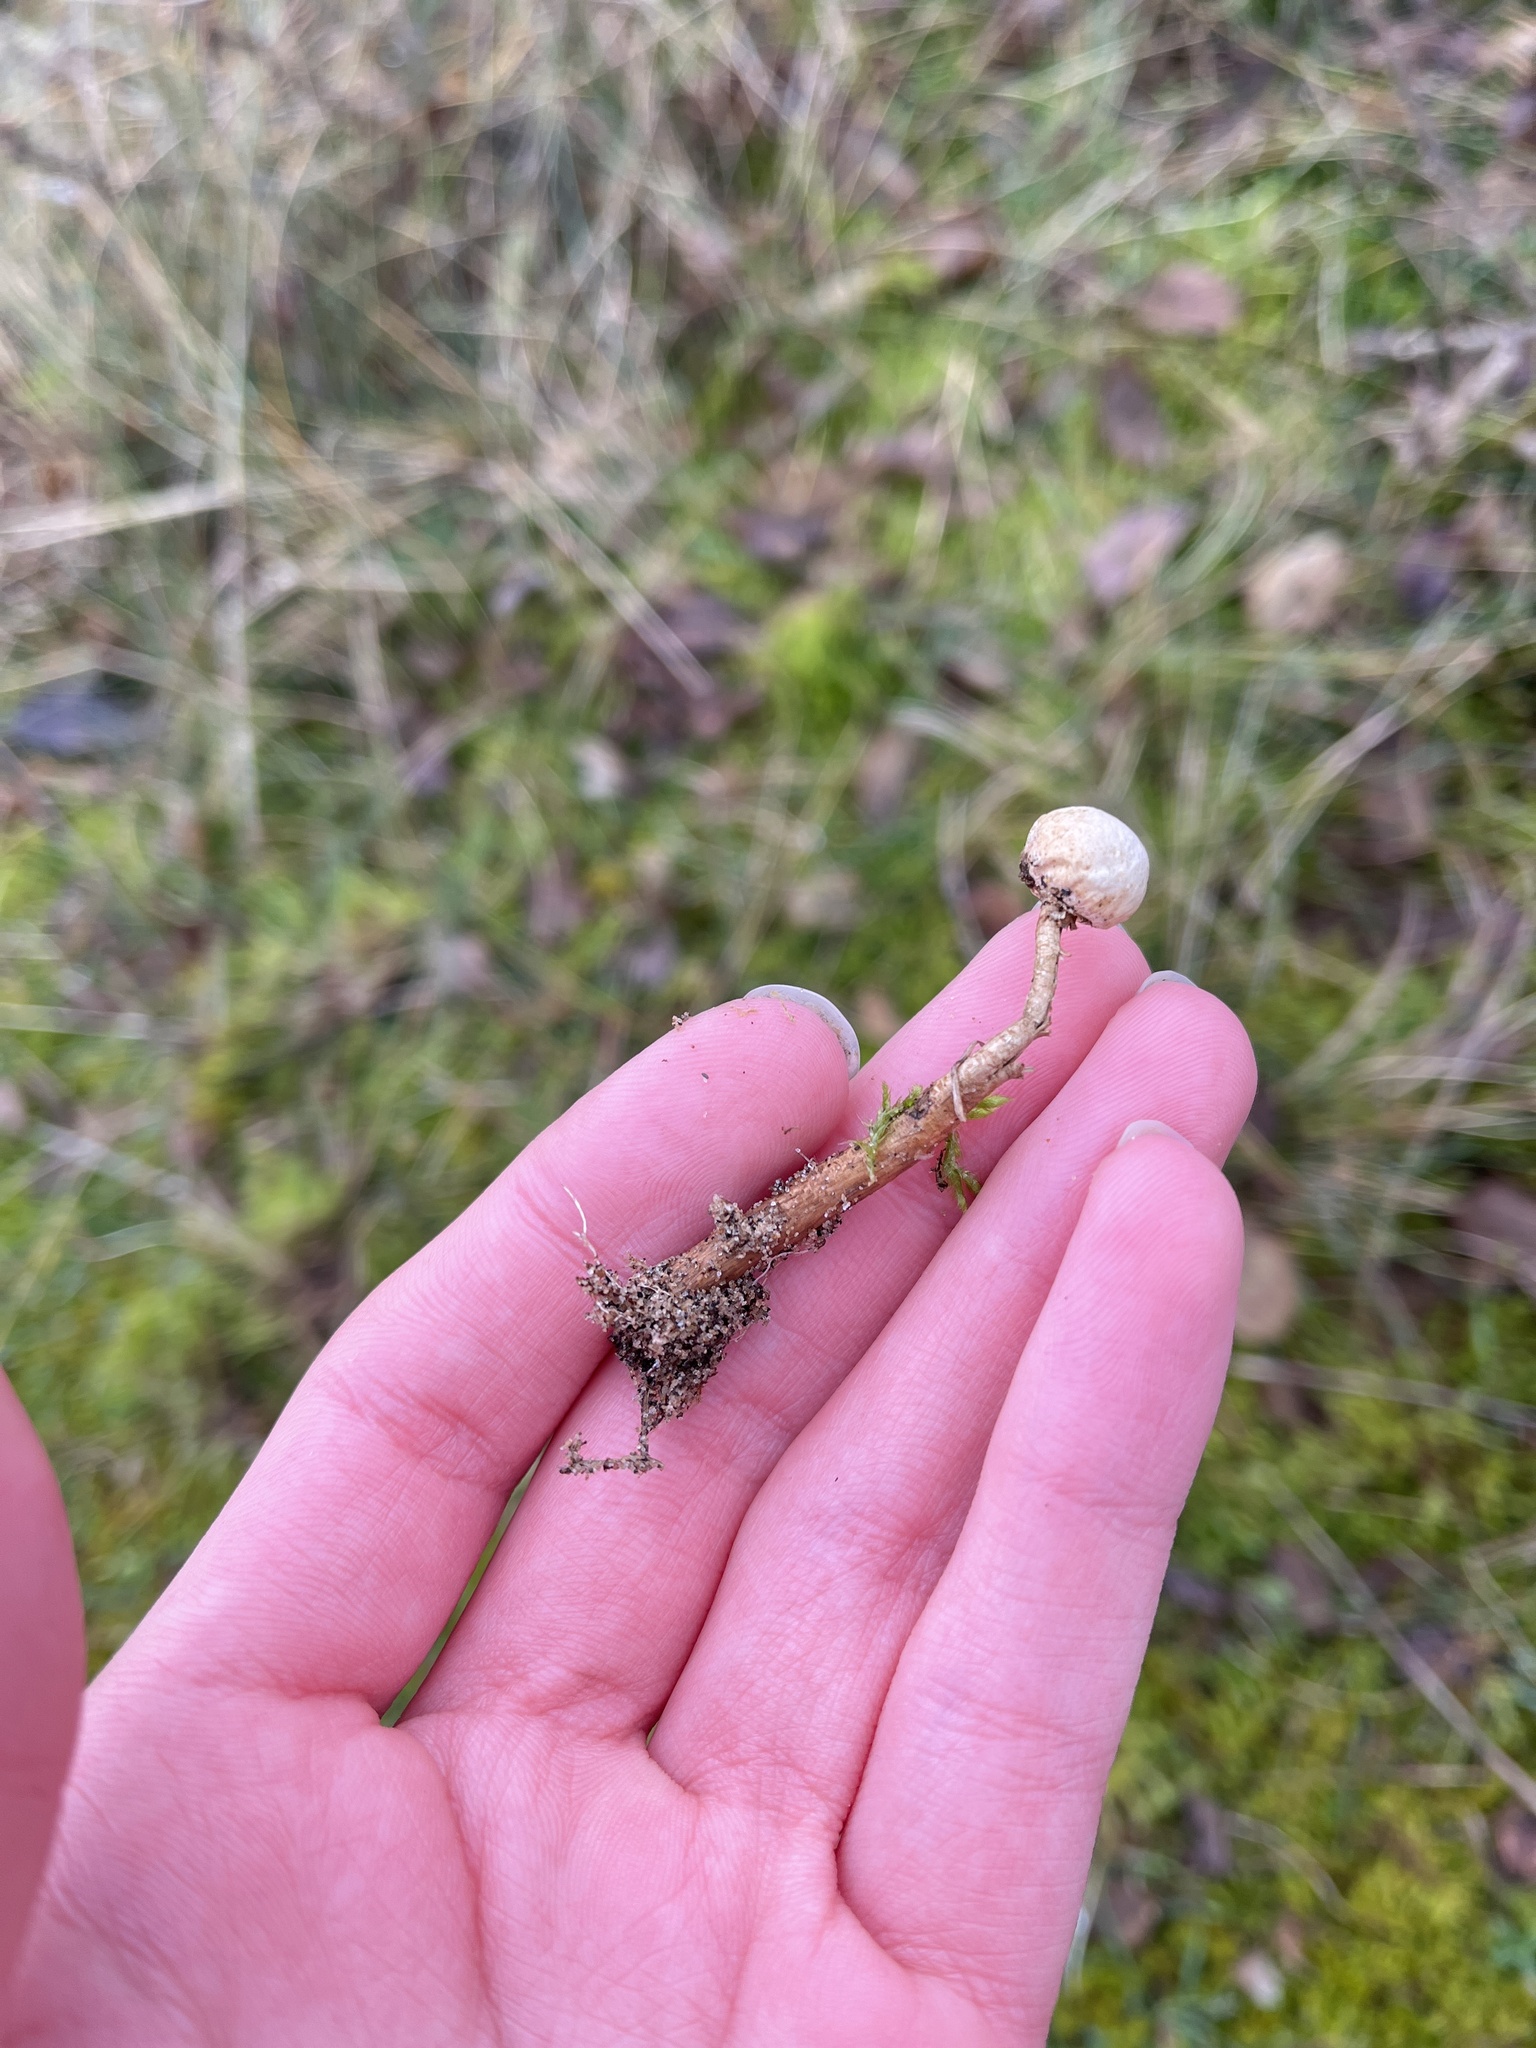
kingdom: Fungi
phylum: Basidiomycota
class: Agaricomycetes
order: Agaricales
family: Agaricaceae
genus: Tulostoma
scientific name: Tulostoma brumale
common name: Winter stalk puffball
